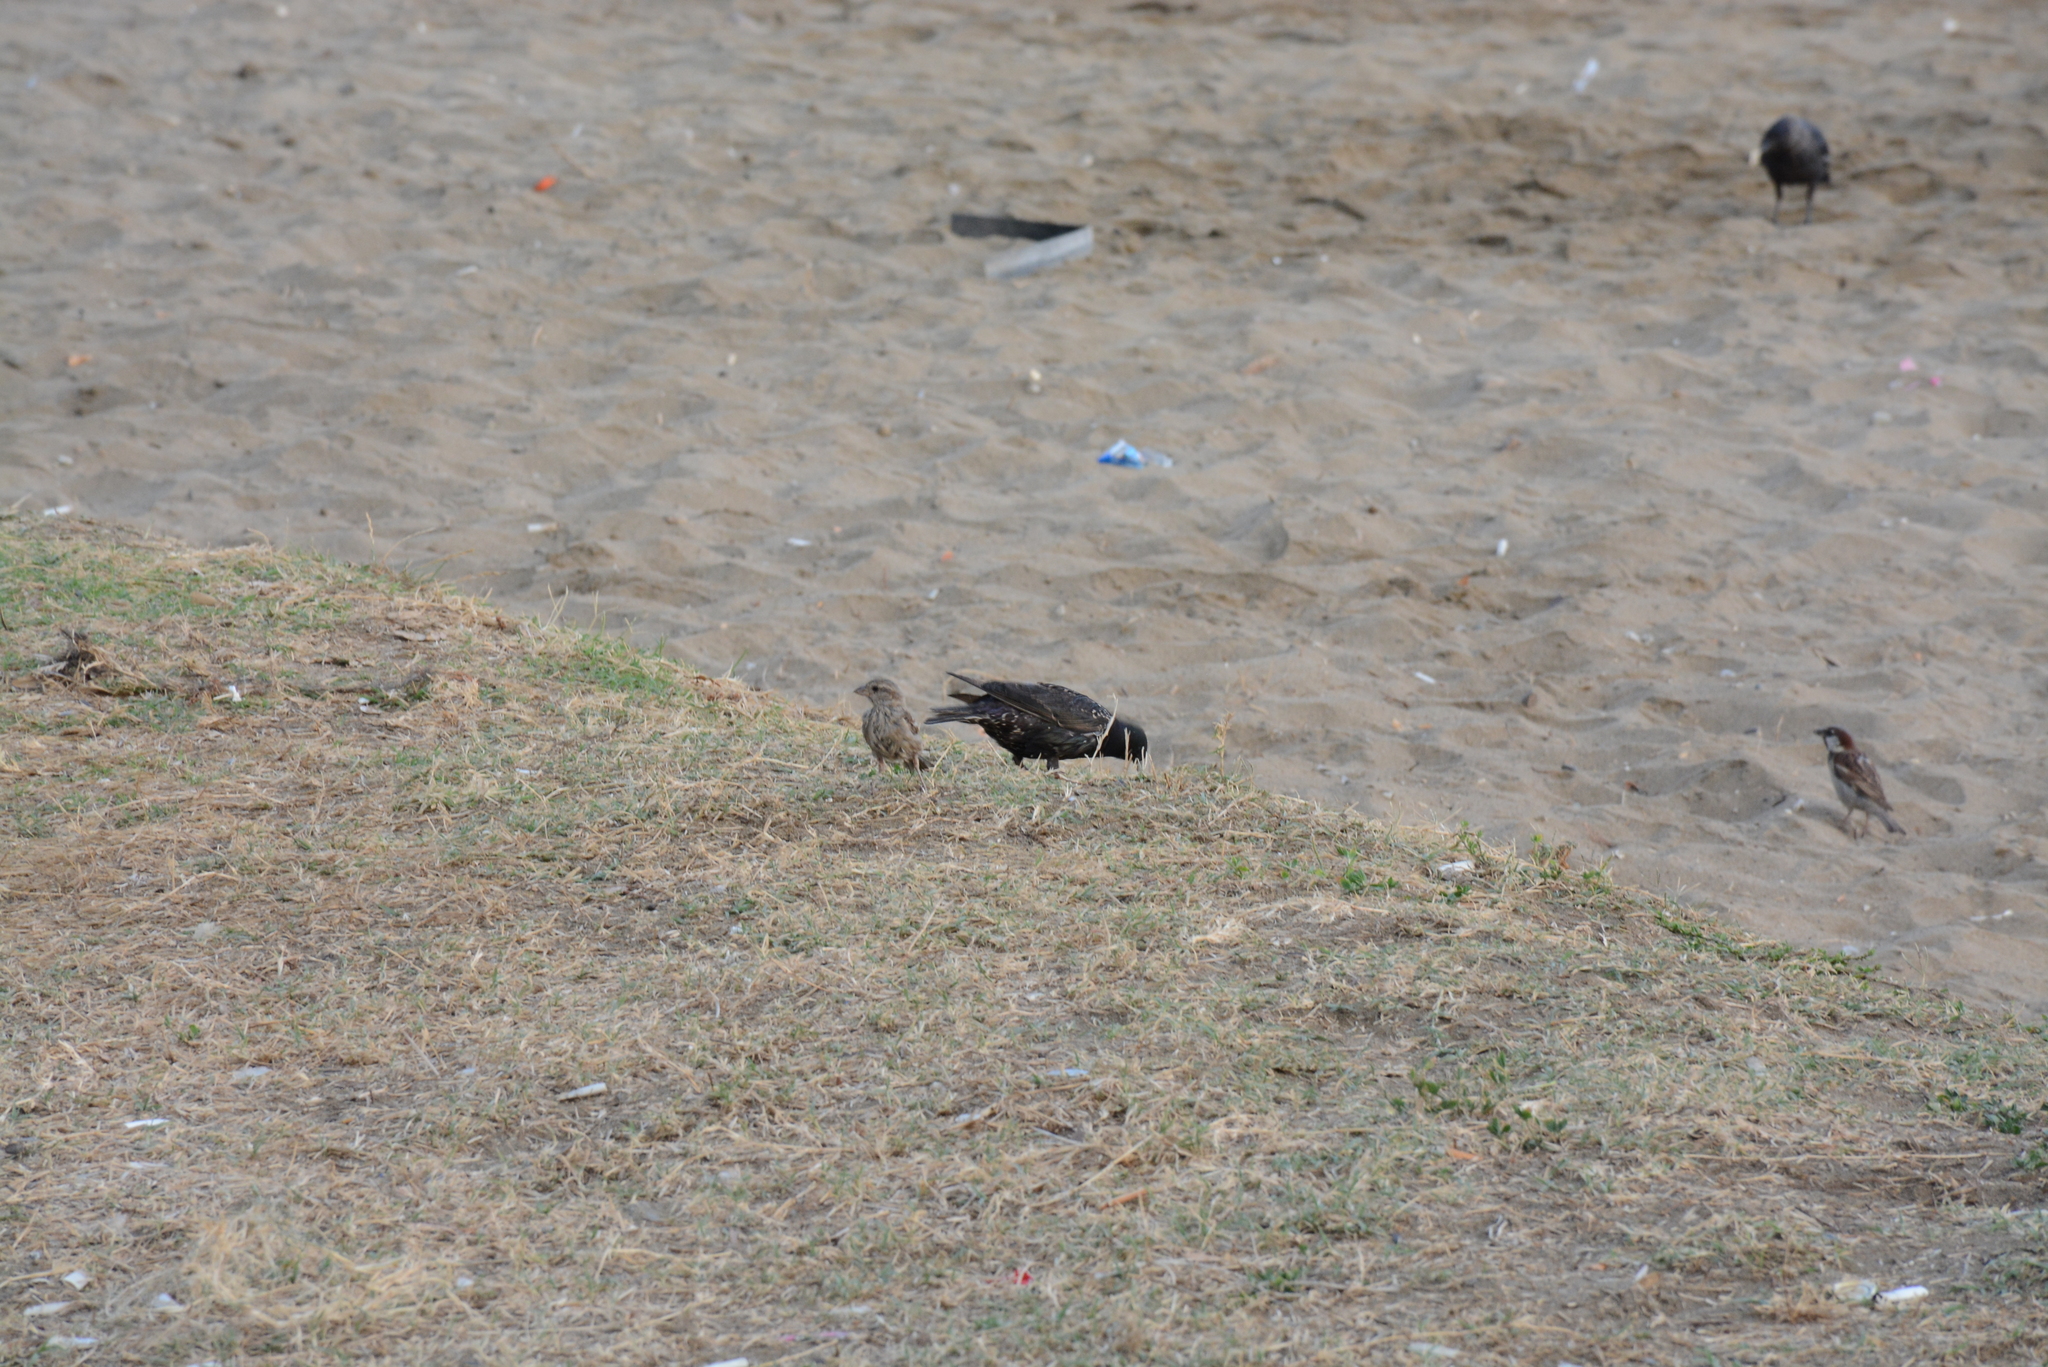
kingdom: Animalia
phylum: Chordata
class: Aves
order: Passeriformes
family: Passeridae
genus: Passer
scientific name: Passer domesticus
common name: House sparrow
